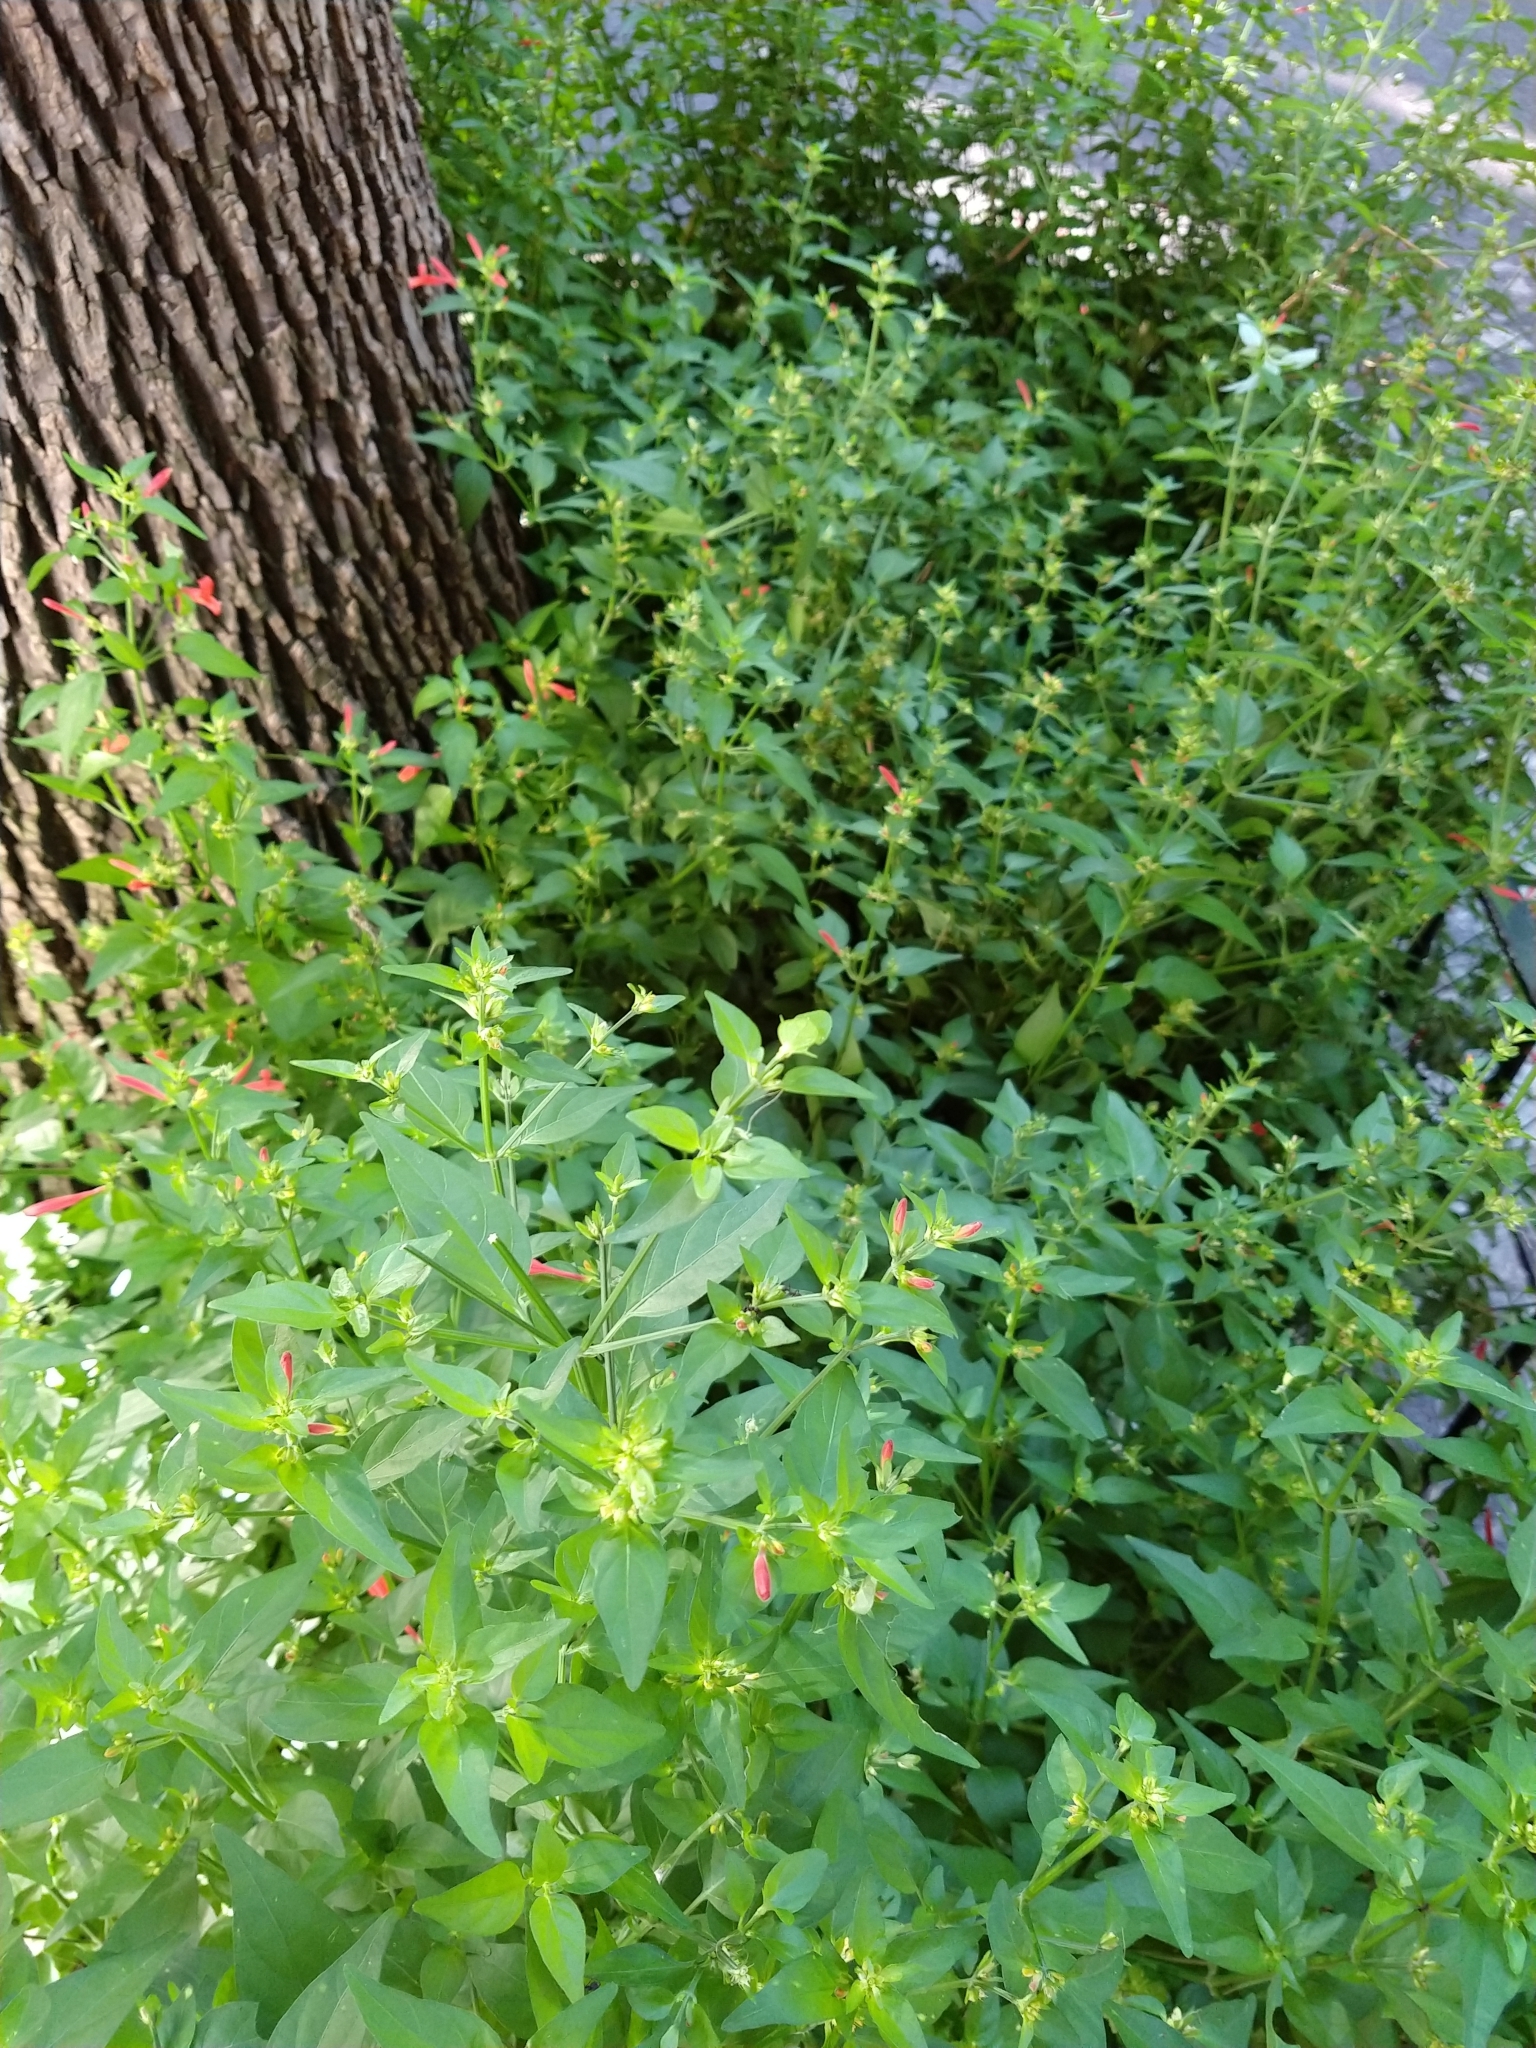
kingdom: Plantae
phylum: Tracheophyta
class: Magnoliopsida
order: Lamiales
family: Acanthaceae
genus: Dicliptera
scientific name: Dicliptera squarrosa
